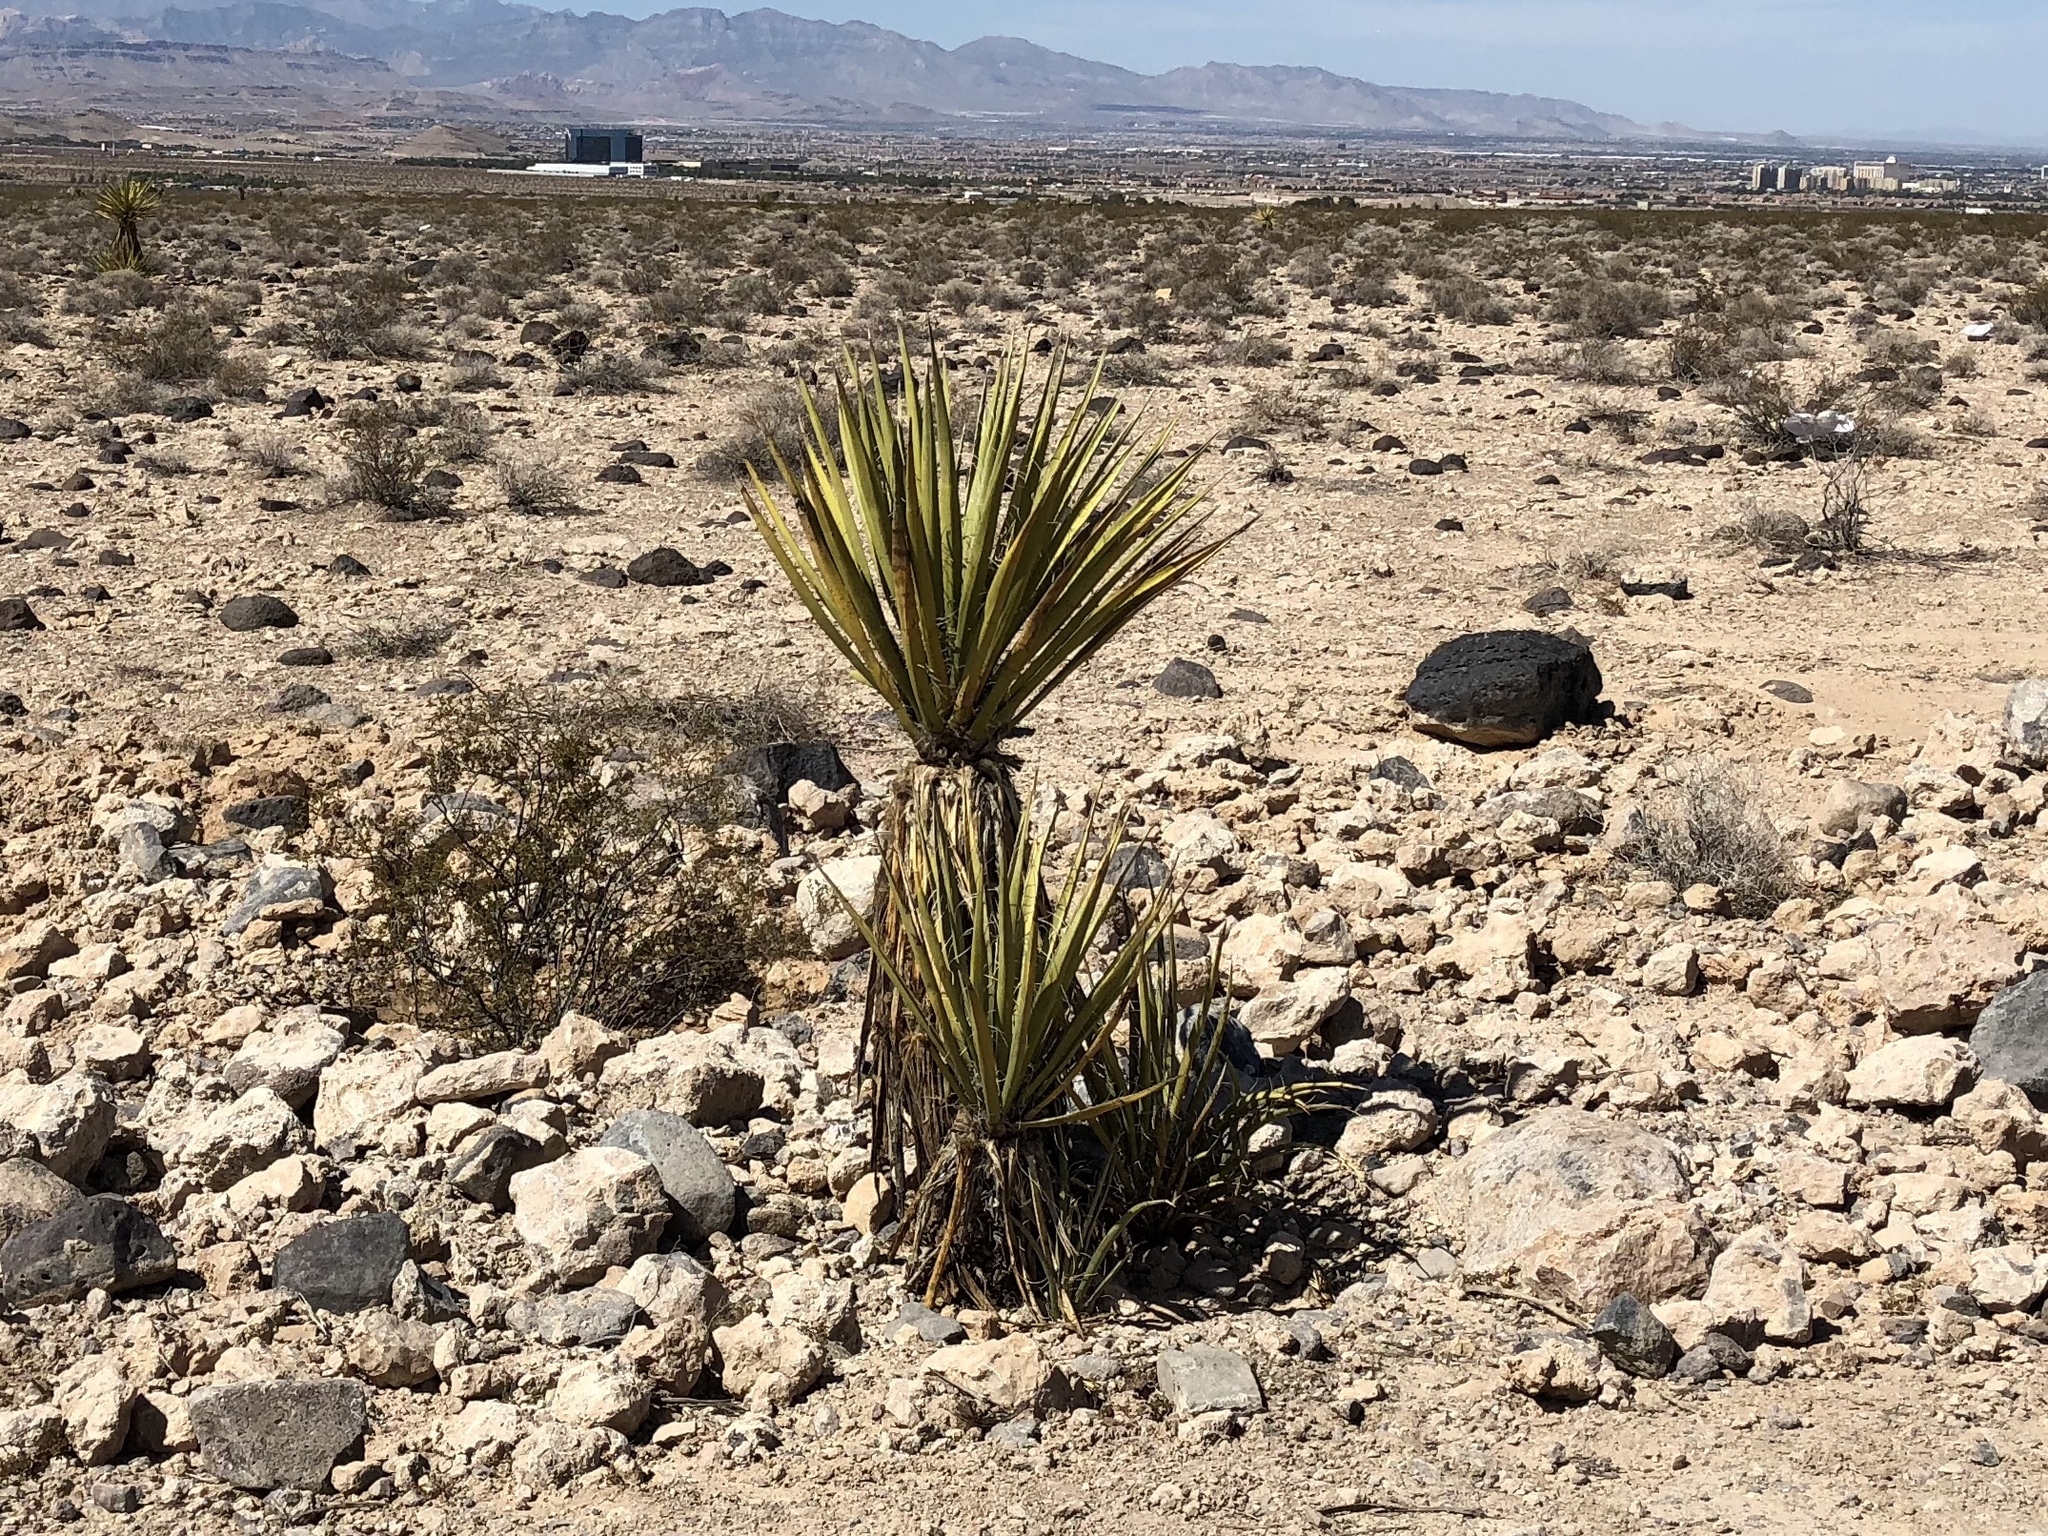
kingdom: Plantae
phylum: Tracheophyta
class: Liliopsida
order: Asparagales
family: Asparagaceae
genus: Yucca
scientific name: Yucca schidigera
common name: Mojave yucca
